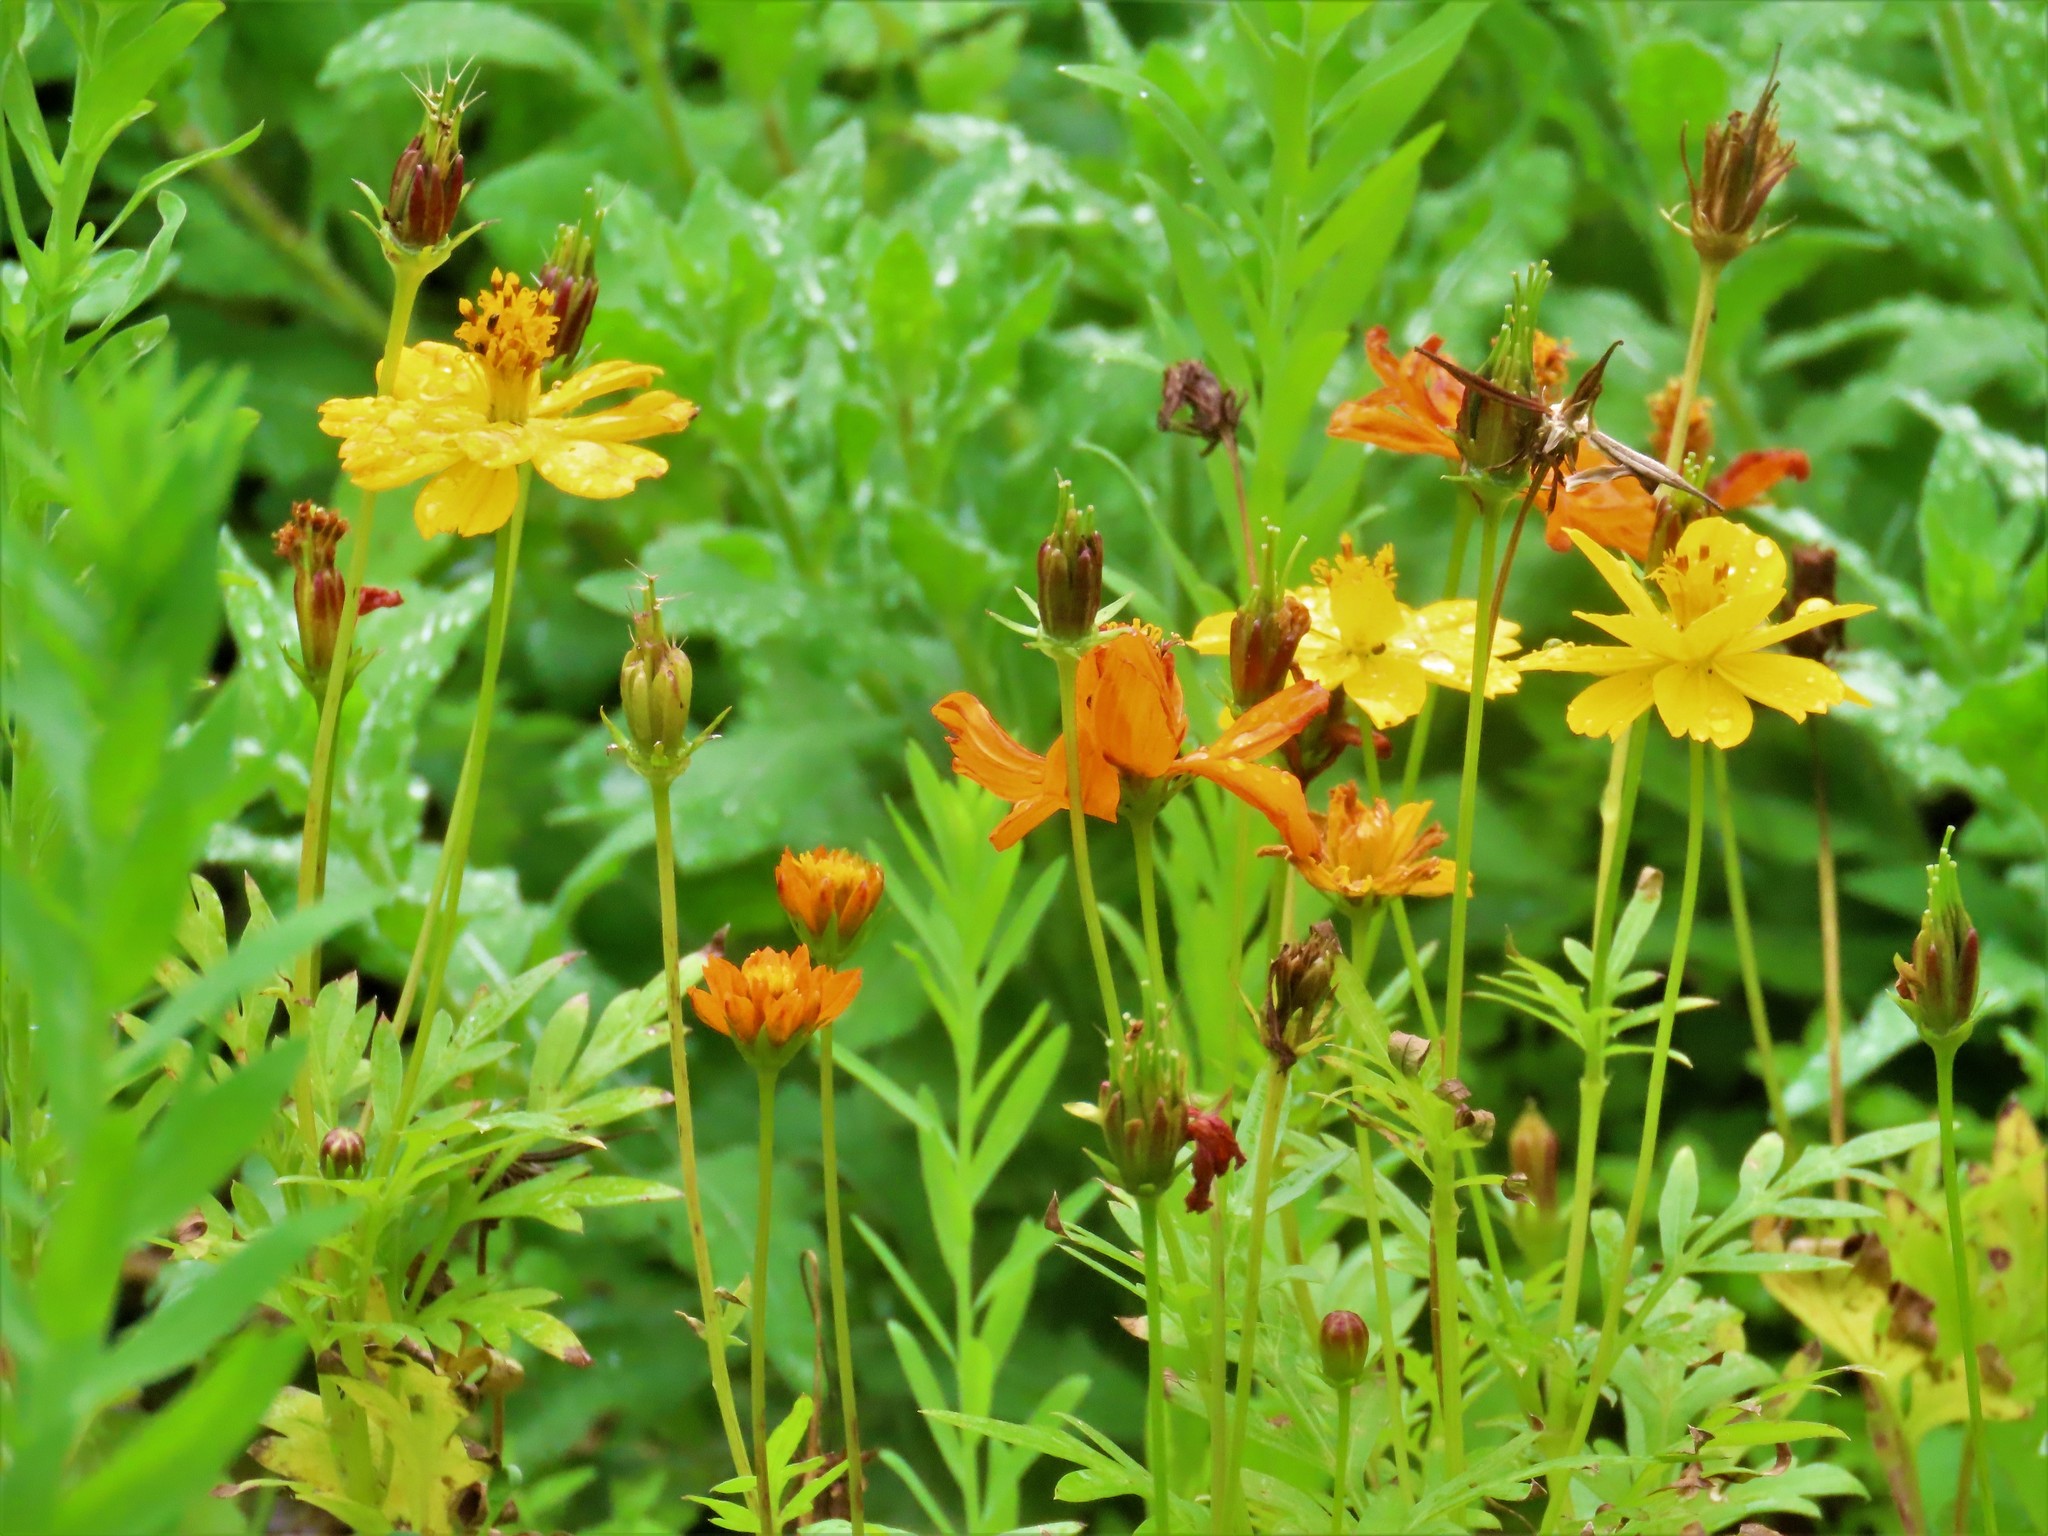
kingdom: Plantae
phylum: Tracheophyta
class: Magnoliopsida
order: Asterales
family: Asteraceae
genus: Cosmos
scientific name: Cosmos sulphureus
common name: Sulphur cosmos
